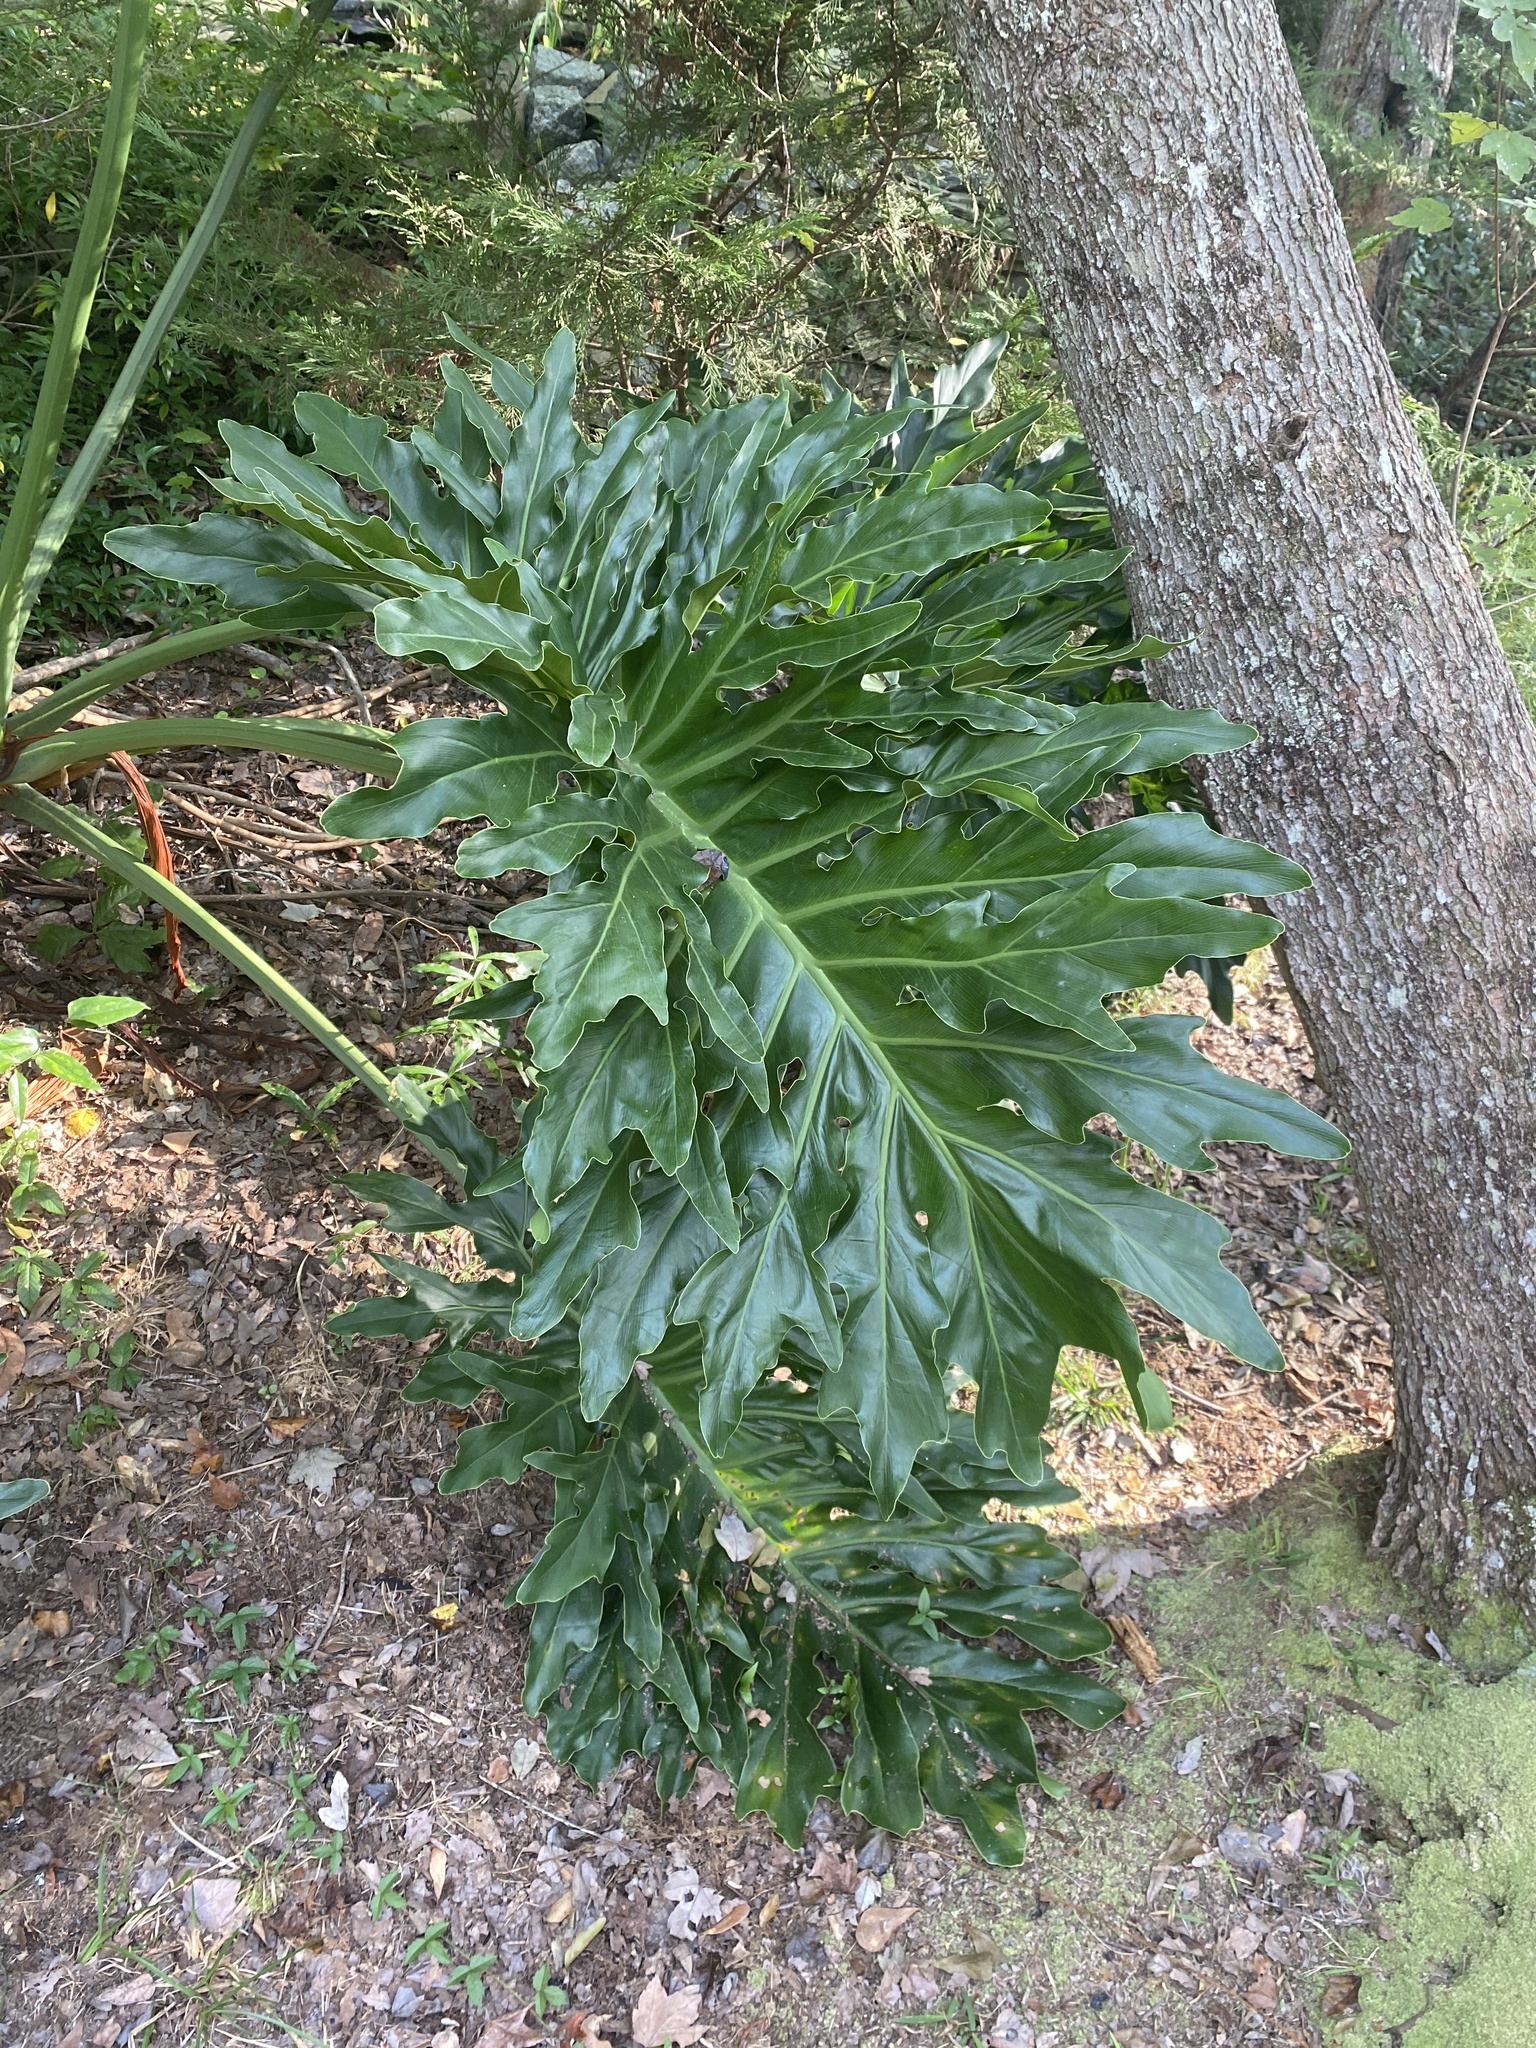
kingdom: Plantae
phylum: Tracheophyta
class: Liliopsida
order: Alismatales
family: Araceae
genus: Thaumatophyllum
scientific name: Thaumatophyllum bipinnatifidum
